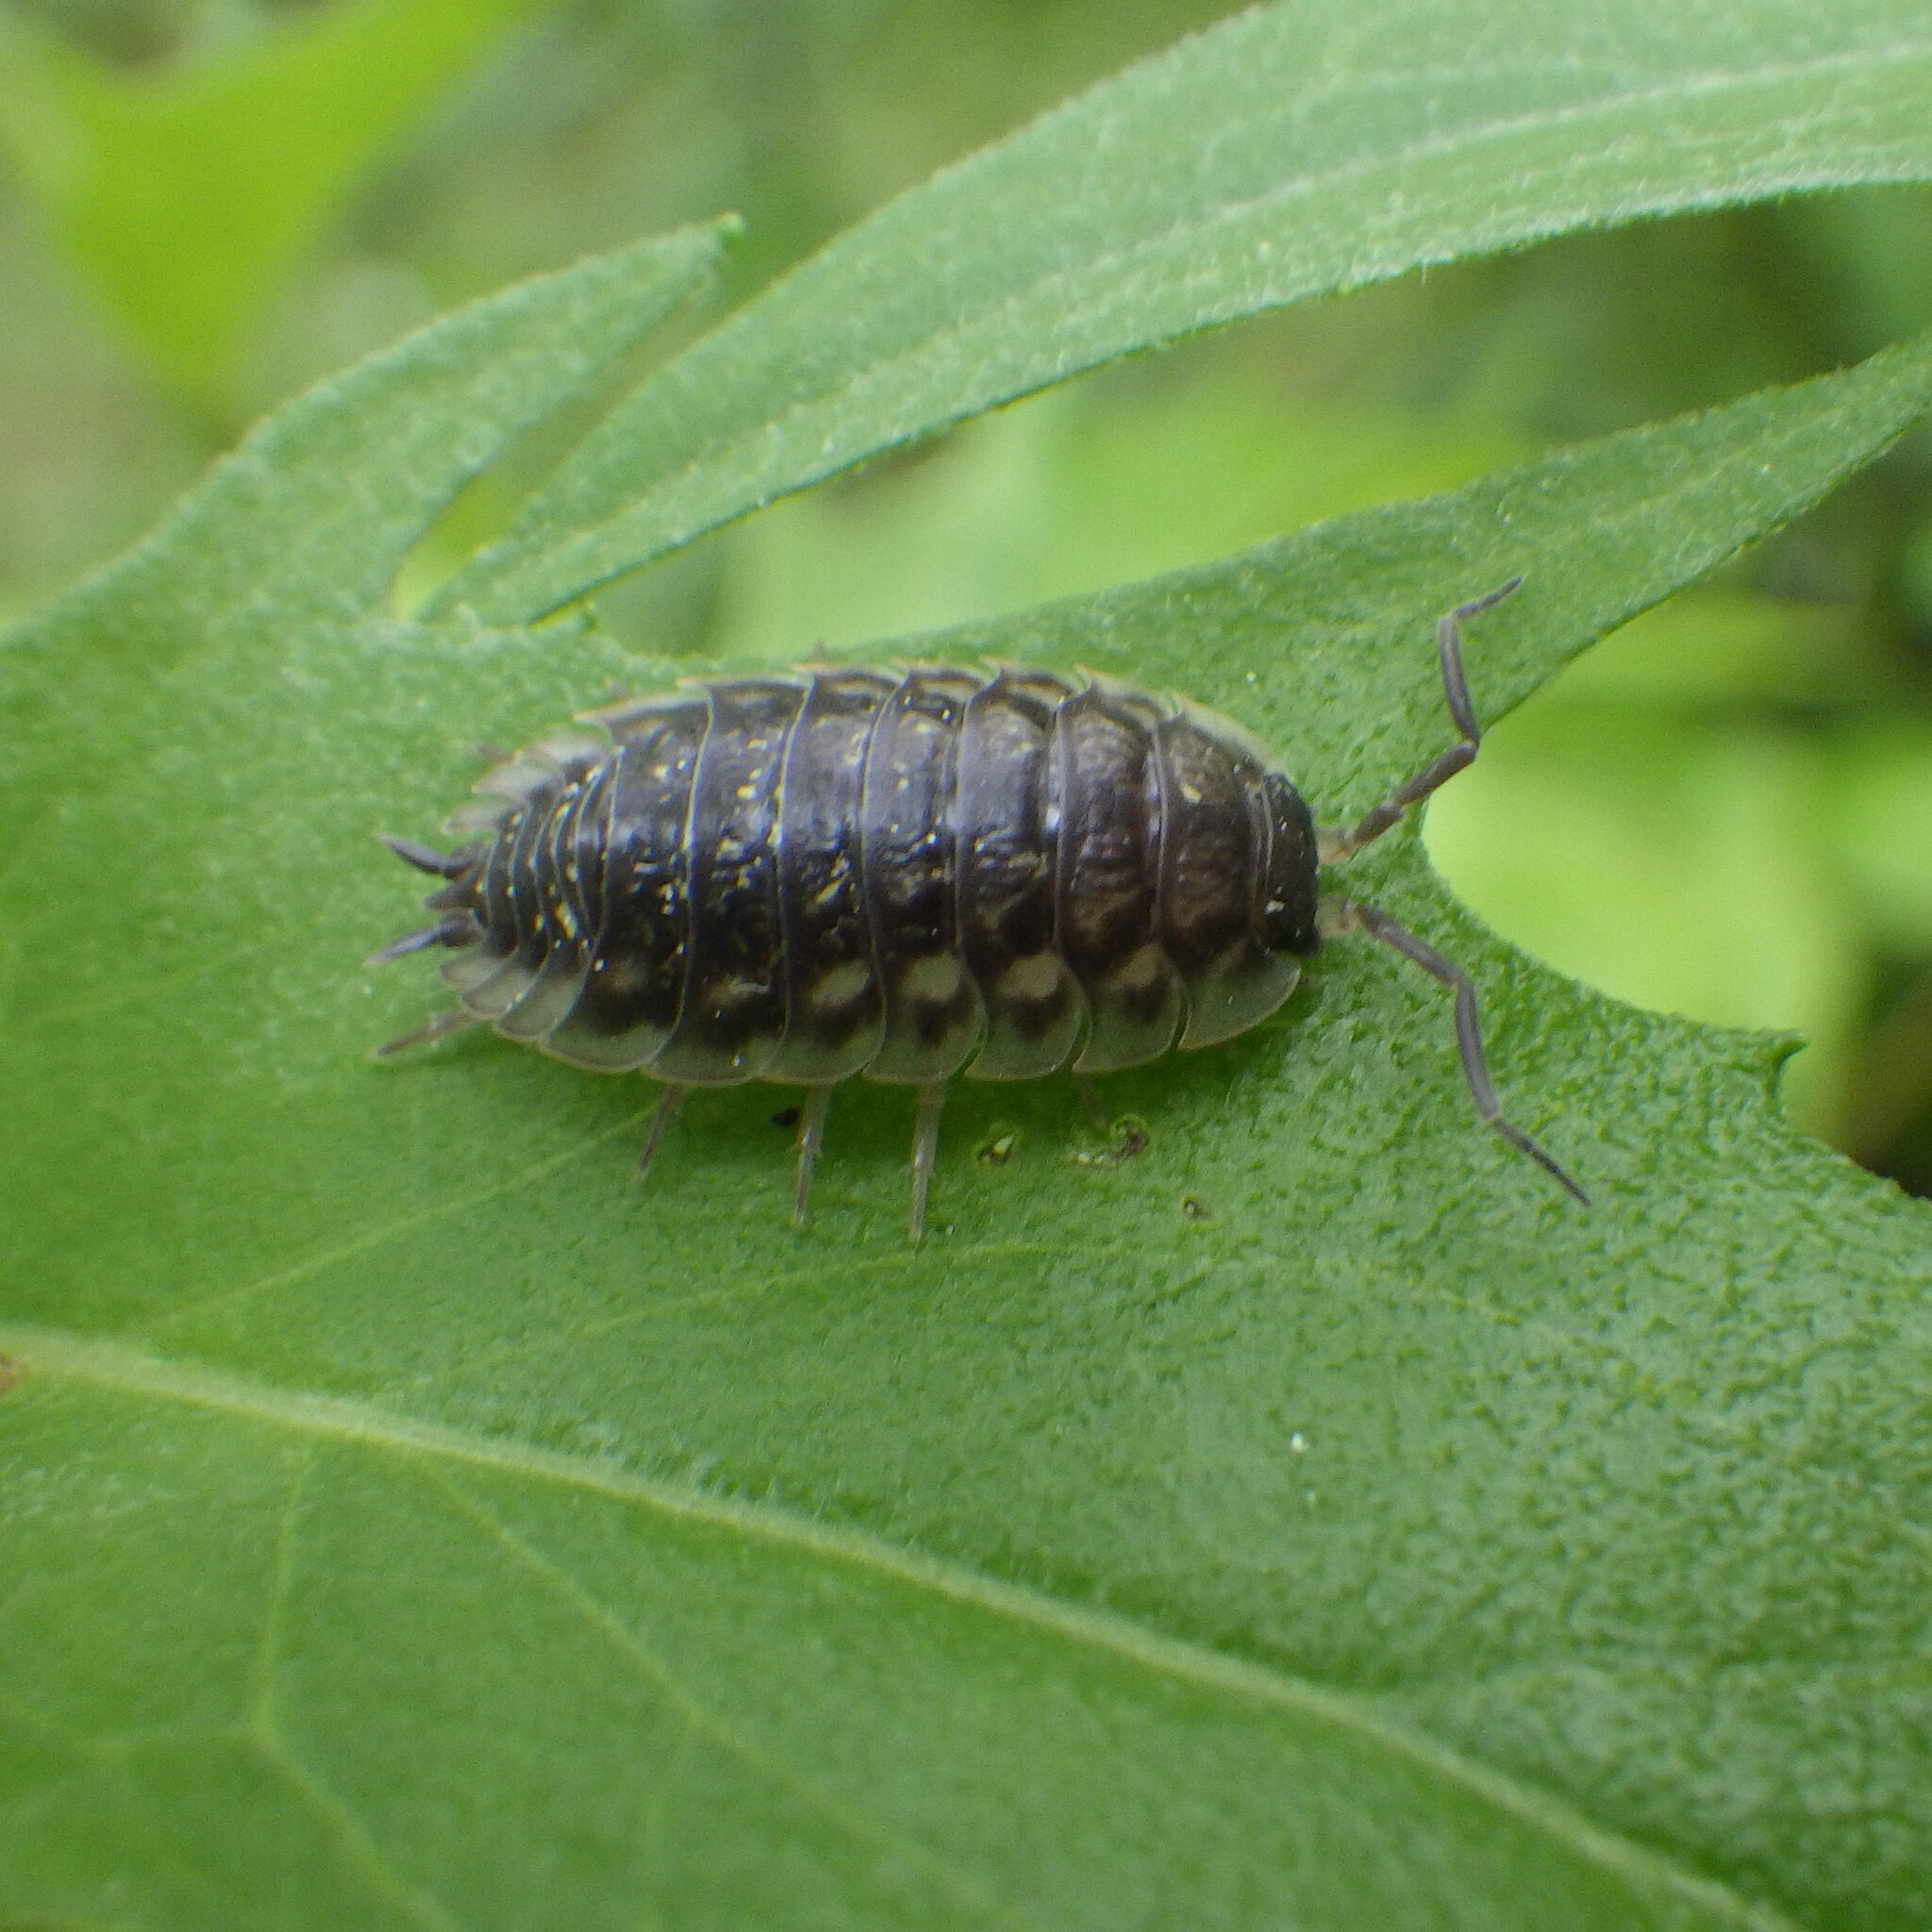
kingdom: Animalia
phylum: Arthropoda
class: Malacostraca
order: Isopoda
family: Oniscidae
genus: Oniscus
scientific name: Oniscus asellus
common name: Common shiny woodlouse
